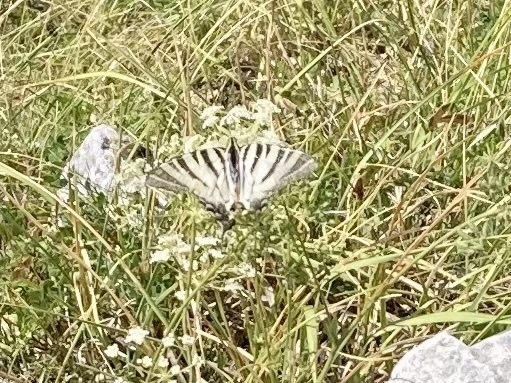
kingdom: Animalia
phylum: Arthropoda
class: Insecta
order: Lepidoptera
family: Papilionidae
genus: Iphiclides
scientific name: Iphiclides podalirius
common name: Scarce swallowtail
